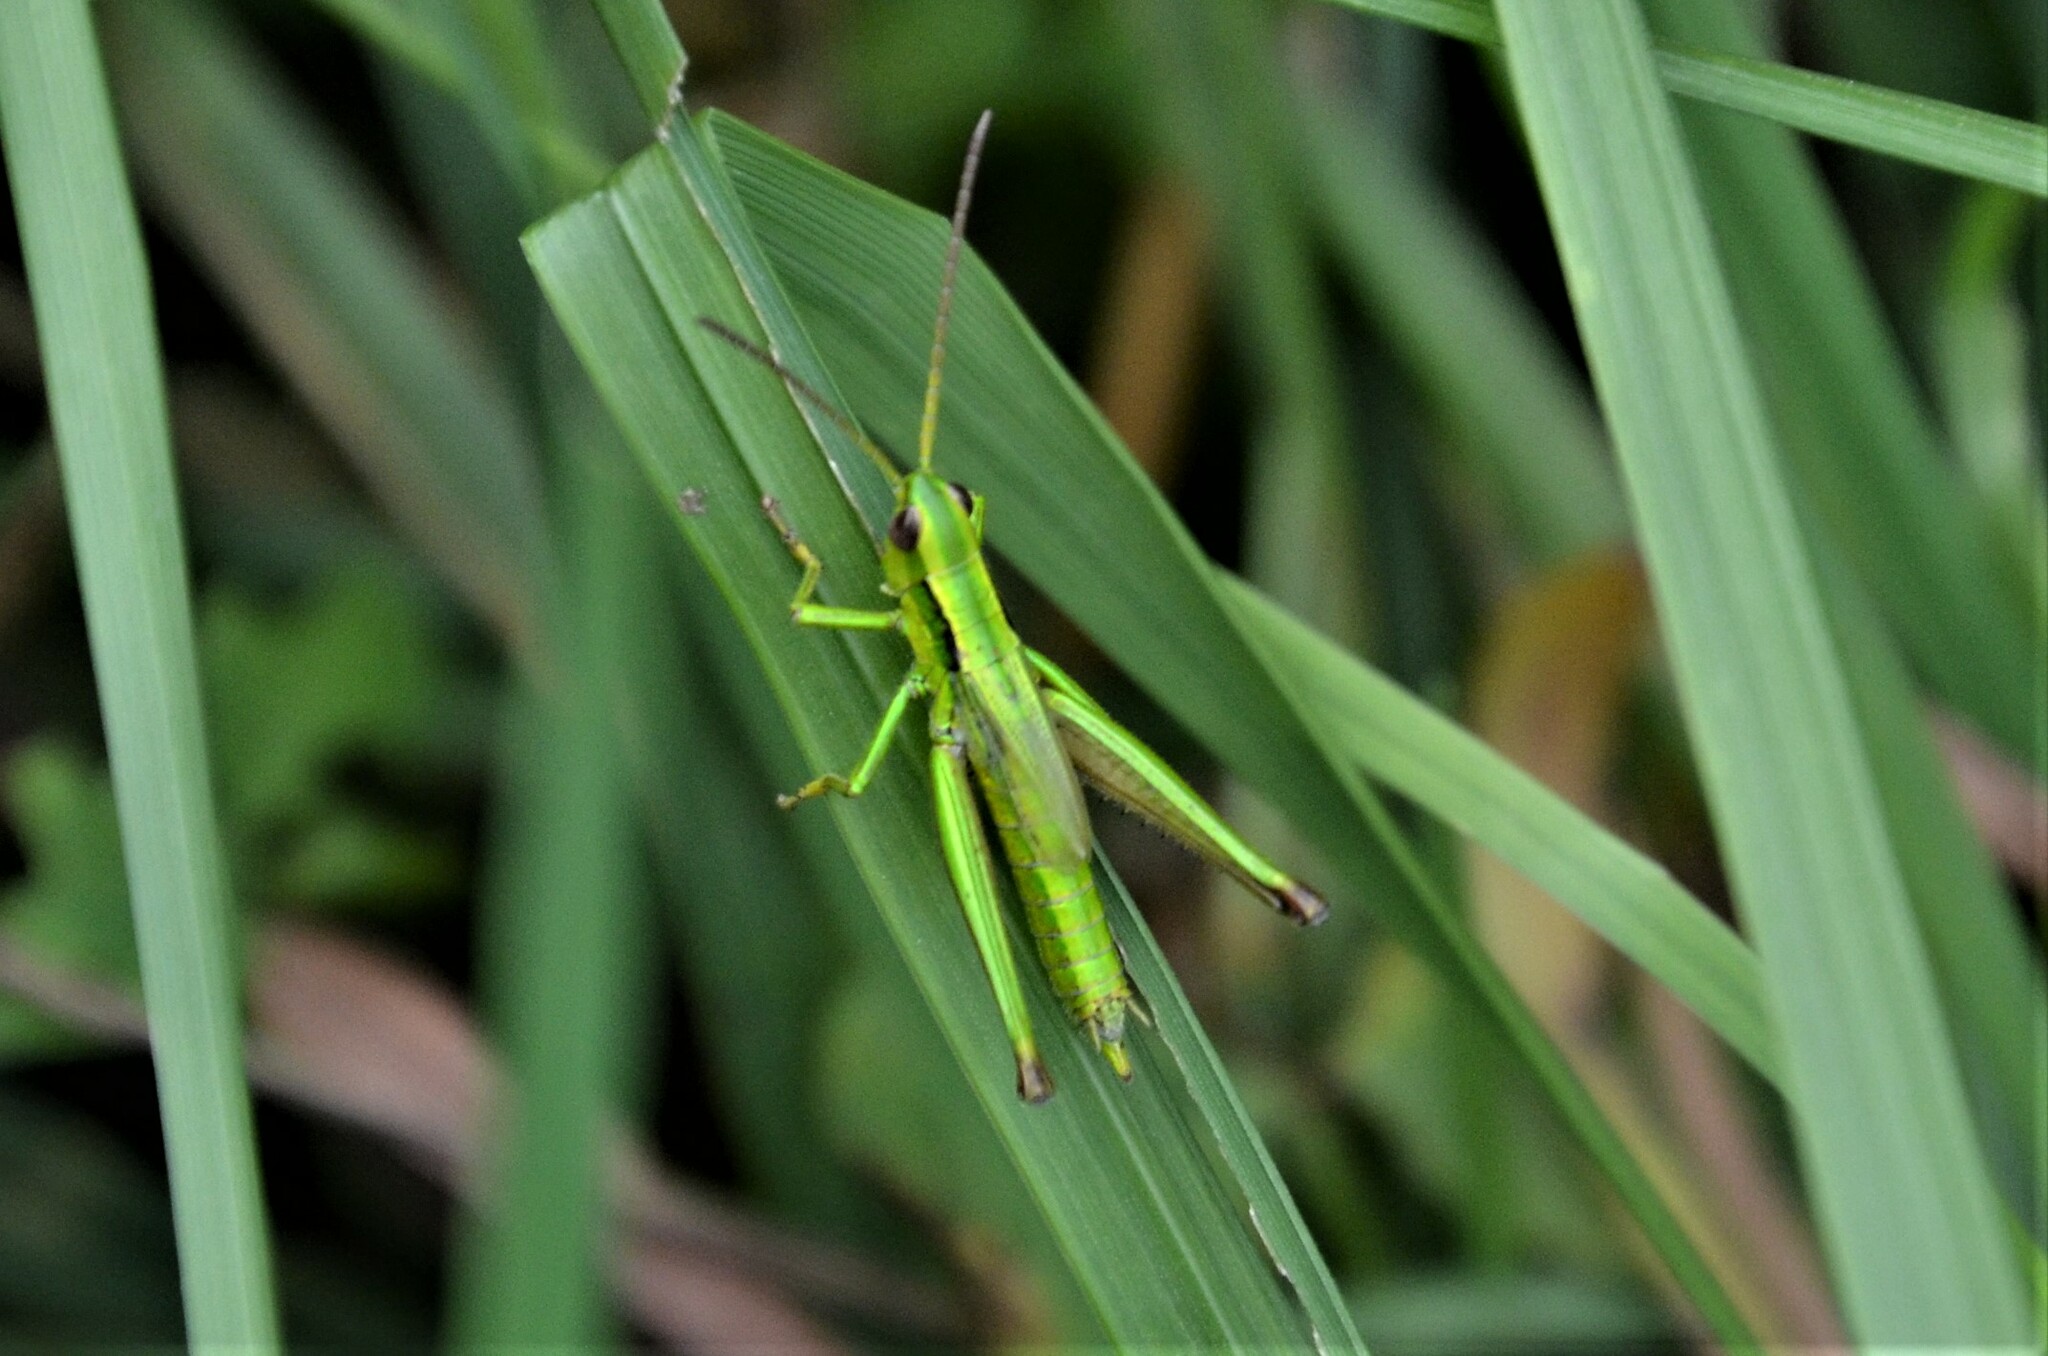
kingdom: Animalia
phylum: Arthropoda
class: Insecta
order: Orthoptera
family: Acrididae
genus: Euthystira
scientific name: Euthystira brachyptera
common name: Small gold grasshopper
